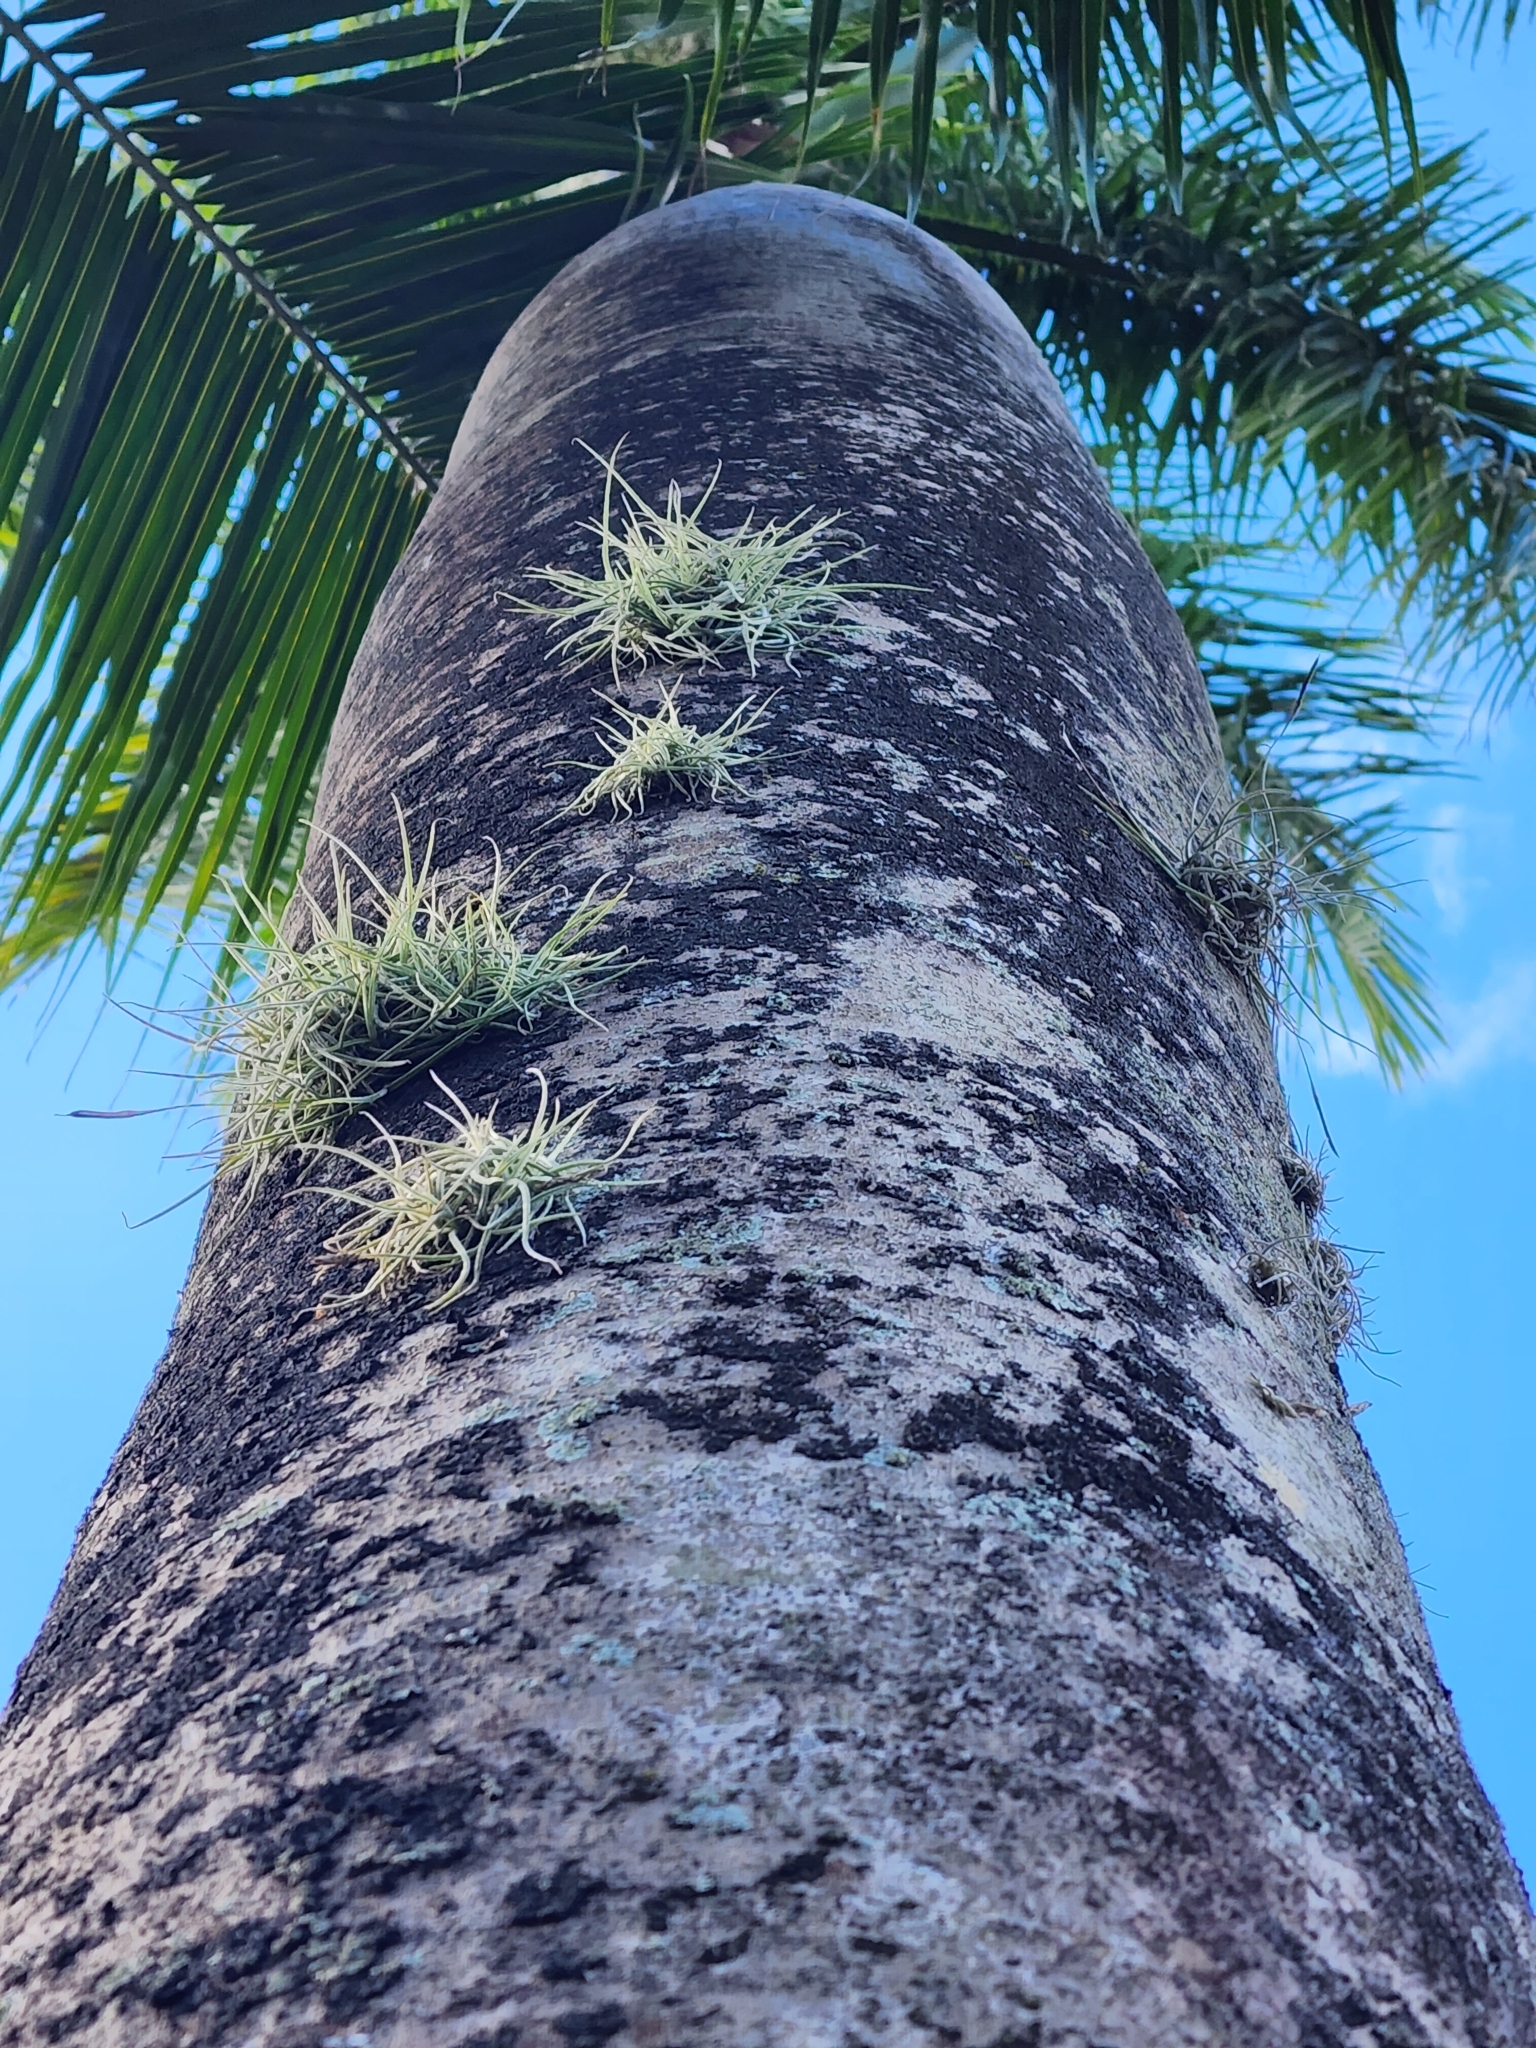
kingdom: Plantae
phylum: Tracheophyta
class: Liliopsida
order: Poales
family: Bromeliaceae
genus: Tillandsia
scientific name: Tillandsia recurvata
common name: Small ballmoss
